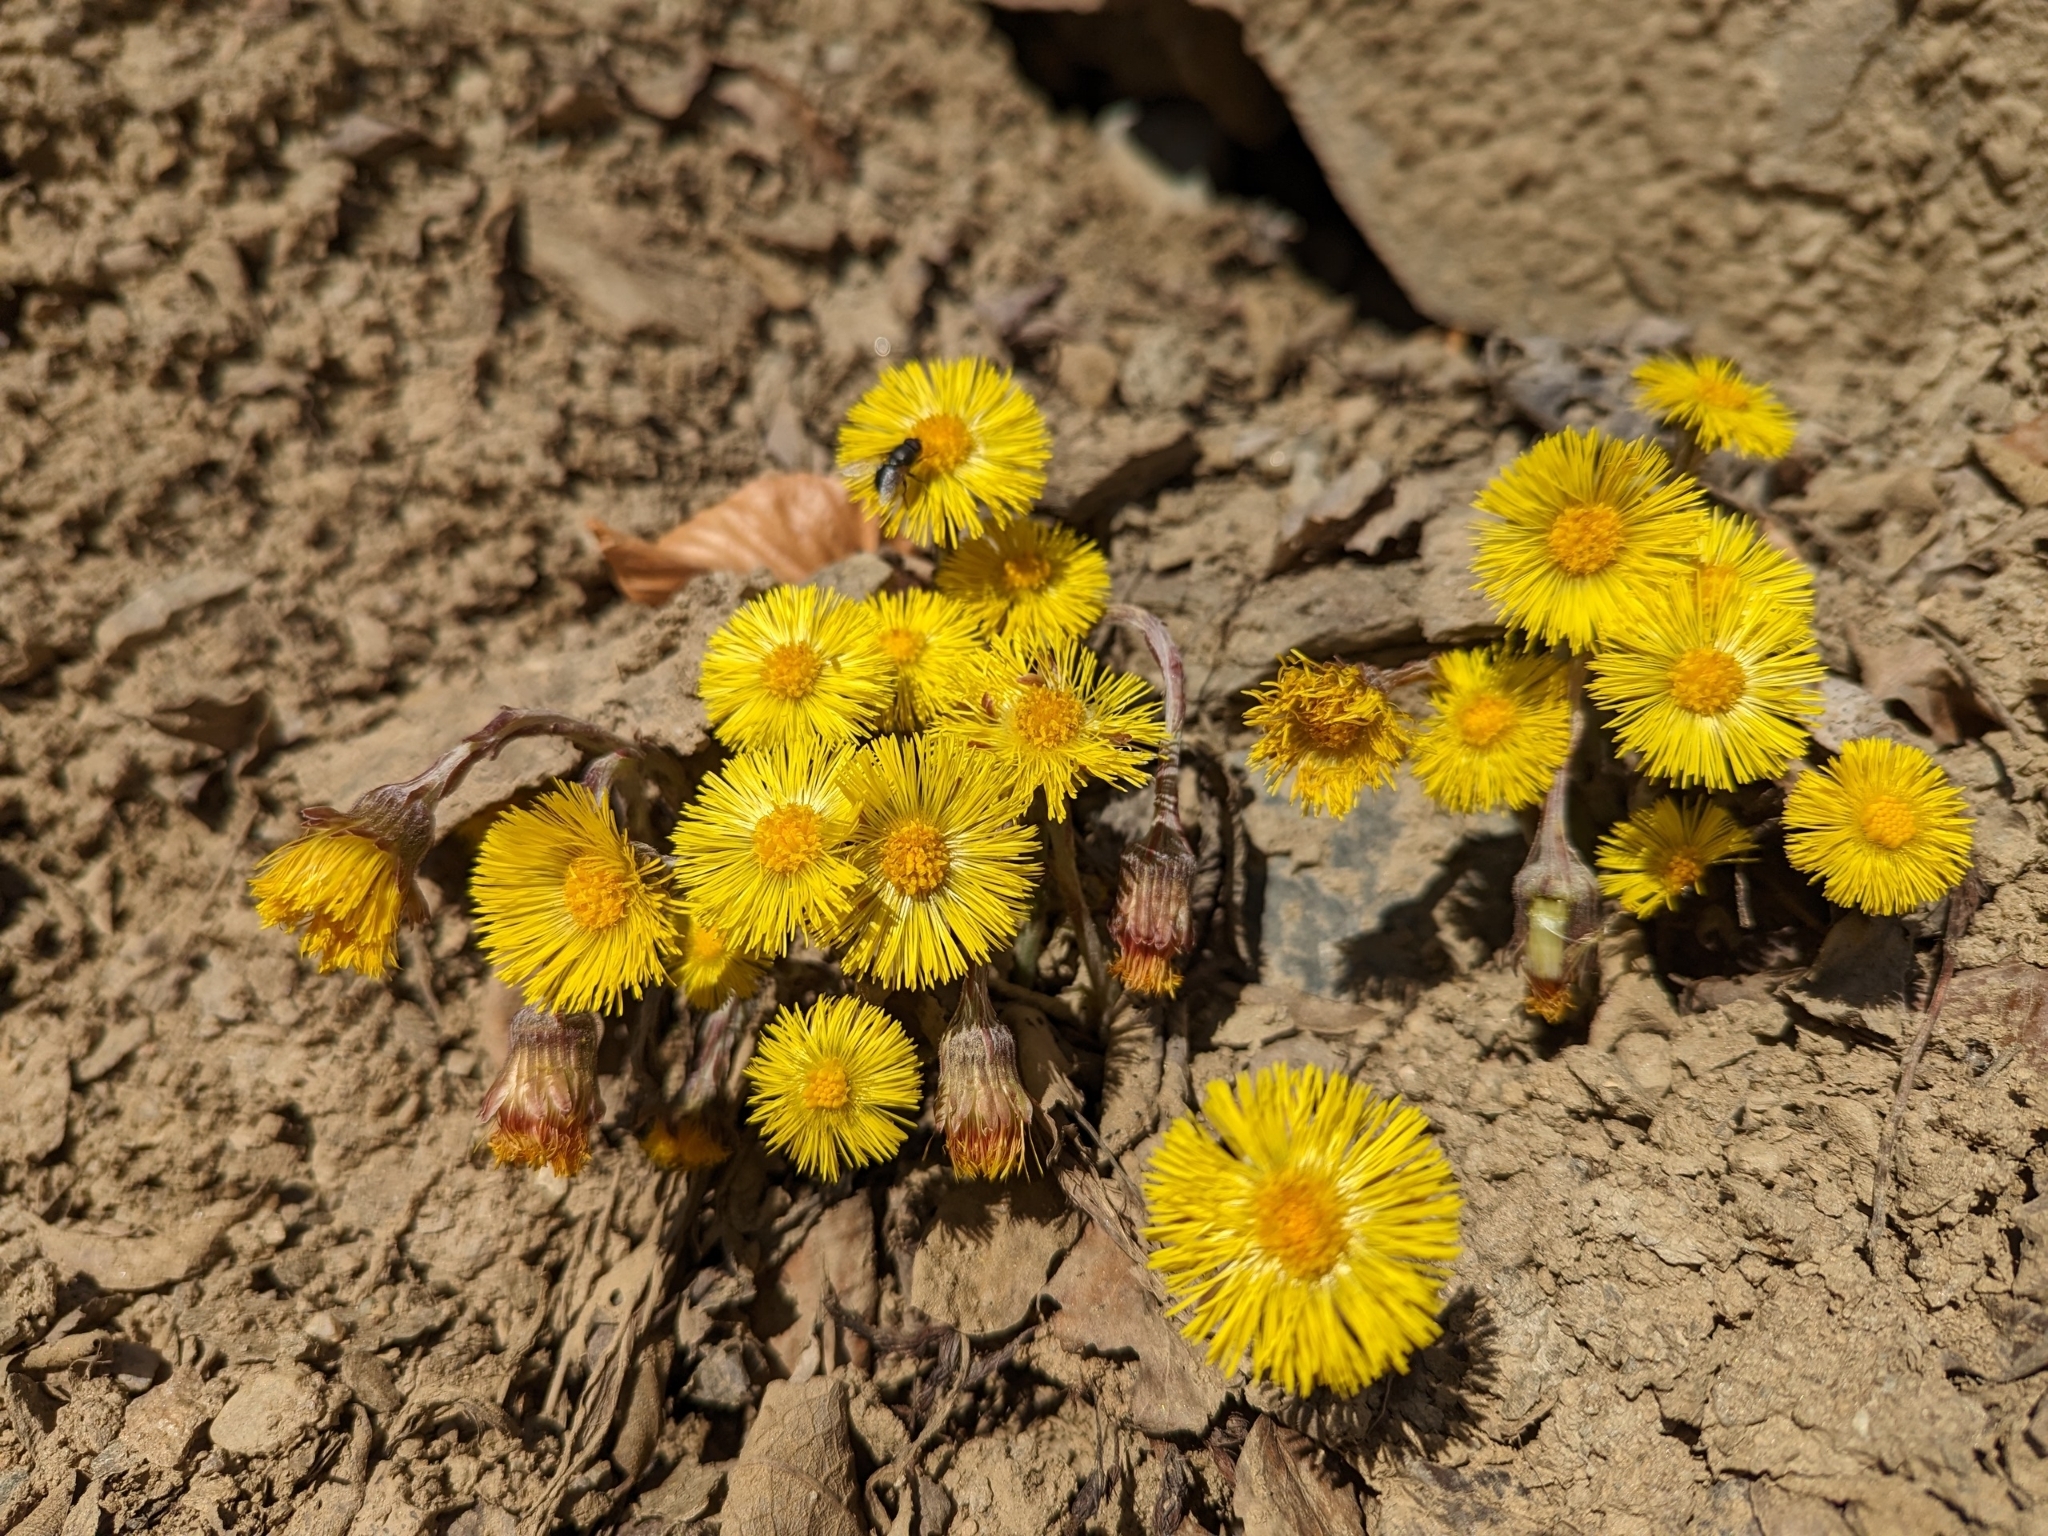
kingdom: Plantae
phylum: Tracheophyta
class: Magnoliopsida
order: Asterales
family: Asteraceae
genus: Tussilago
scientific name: Tussilago farfara
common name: Coltsfoot
